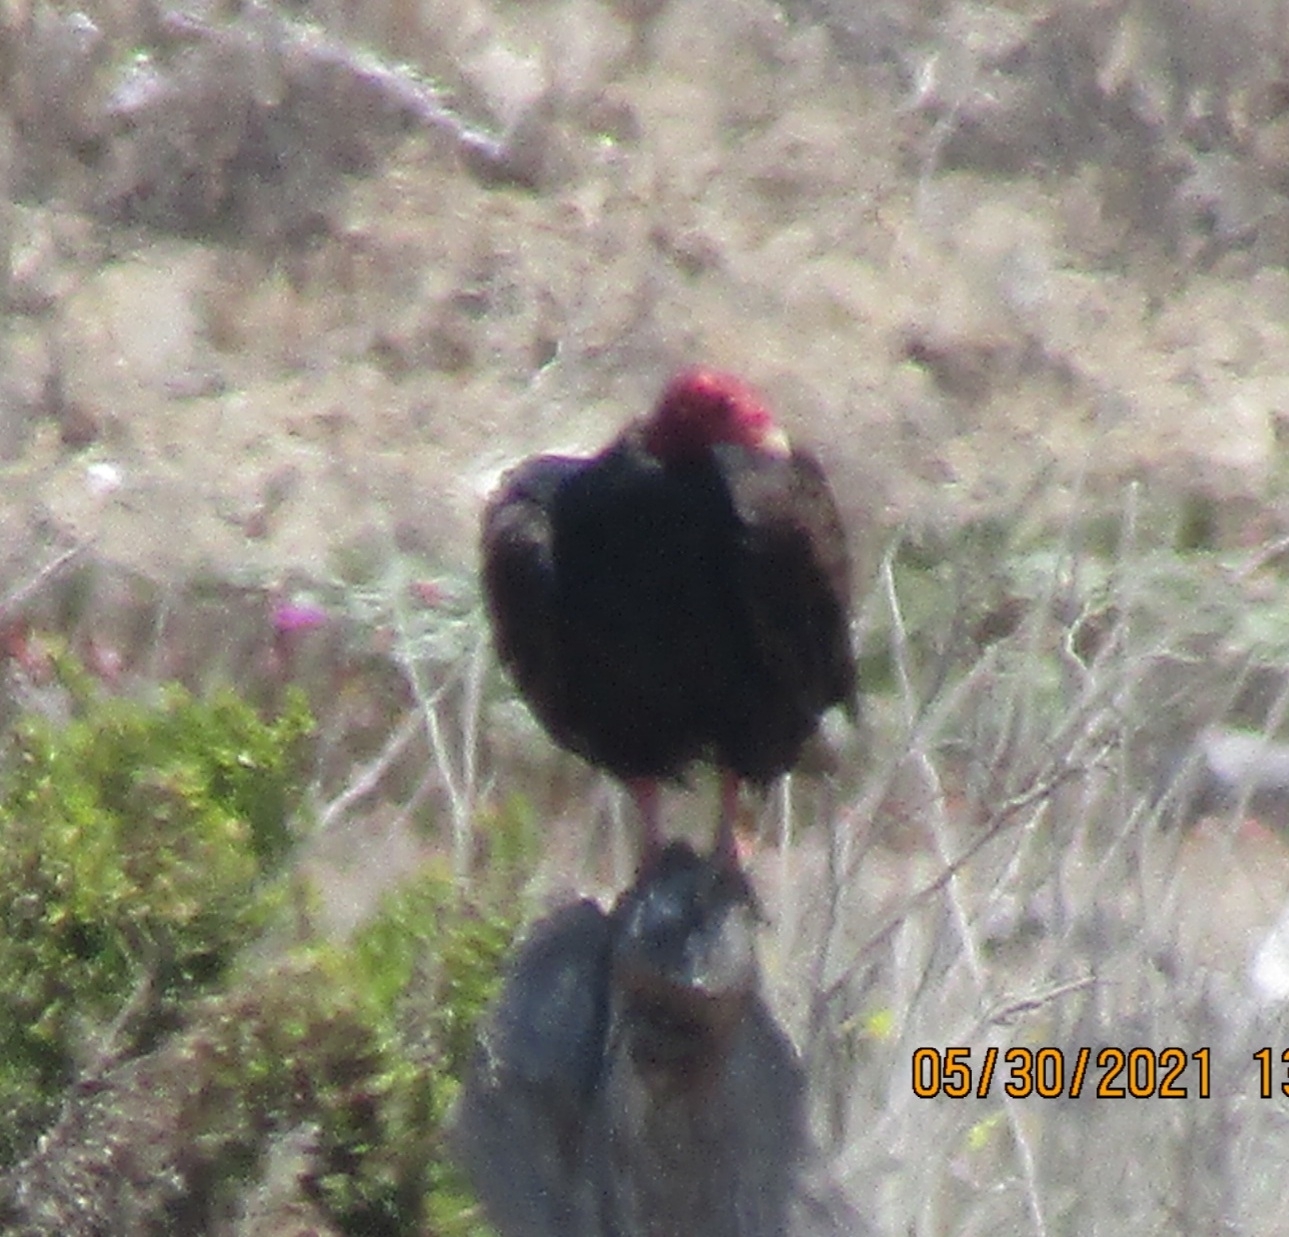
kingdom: Animalia
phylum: Chordata
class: Aves
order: Accipitriformes
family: Cathartidae
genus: Cathartes
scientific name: Cathartes aura
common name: Turkey vulture
